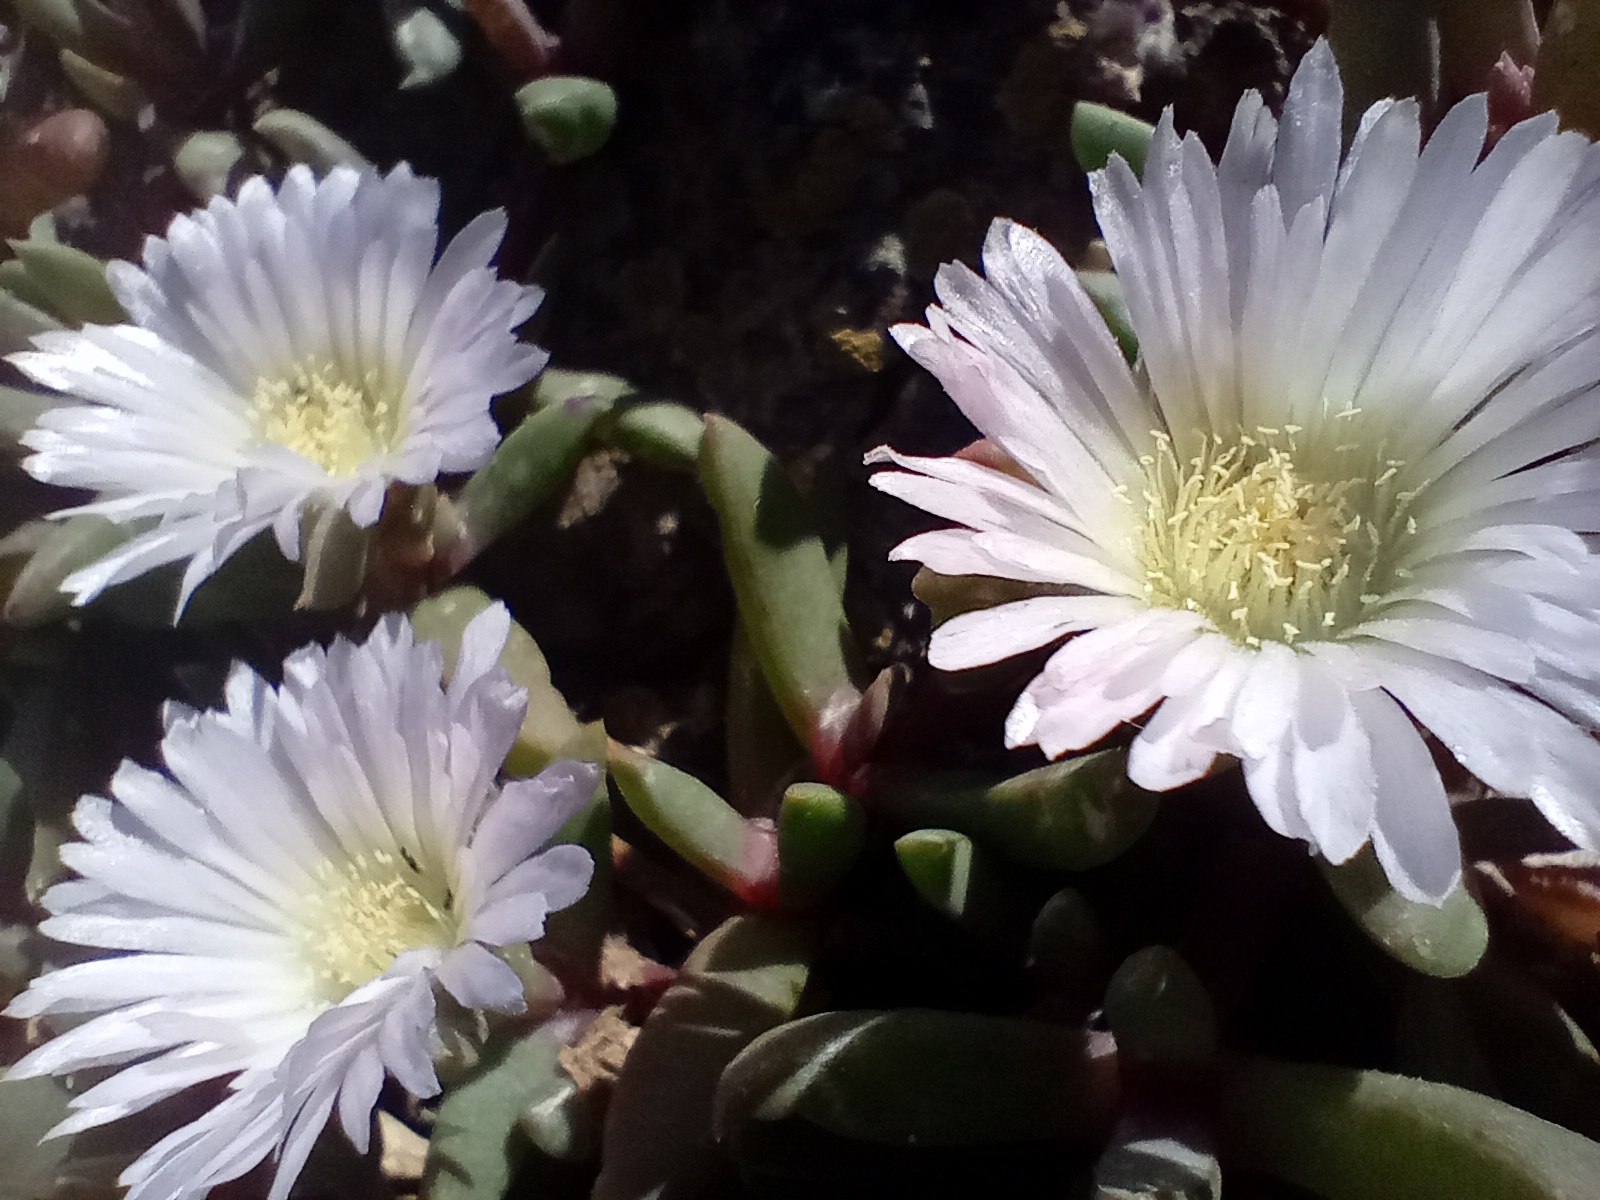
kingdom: Plantae
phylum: Tracheophyta
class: Magnoliopsida
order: Caryophyllales
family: Aizoaceae
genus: Disphyma
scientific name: Disphyma australe
